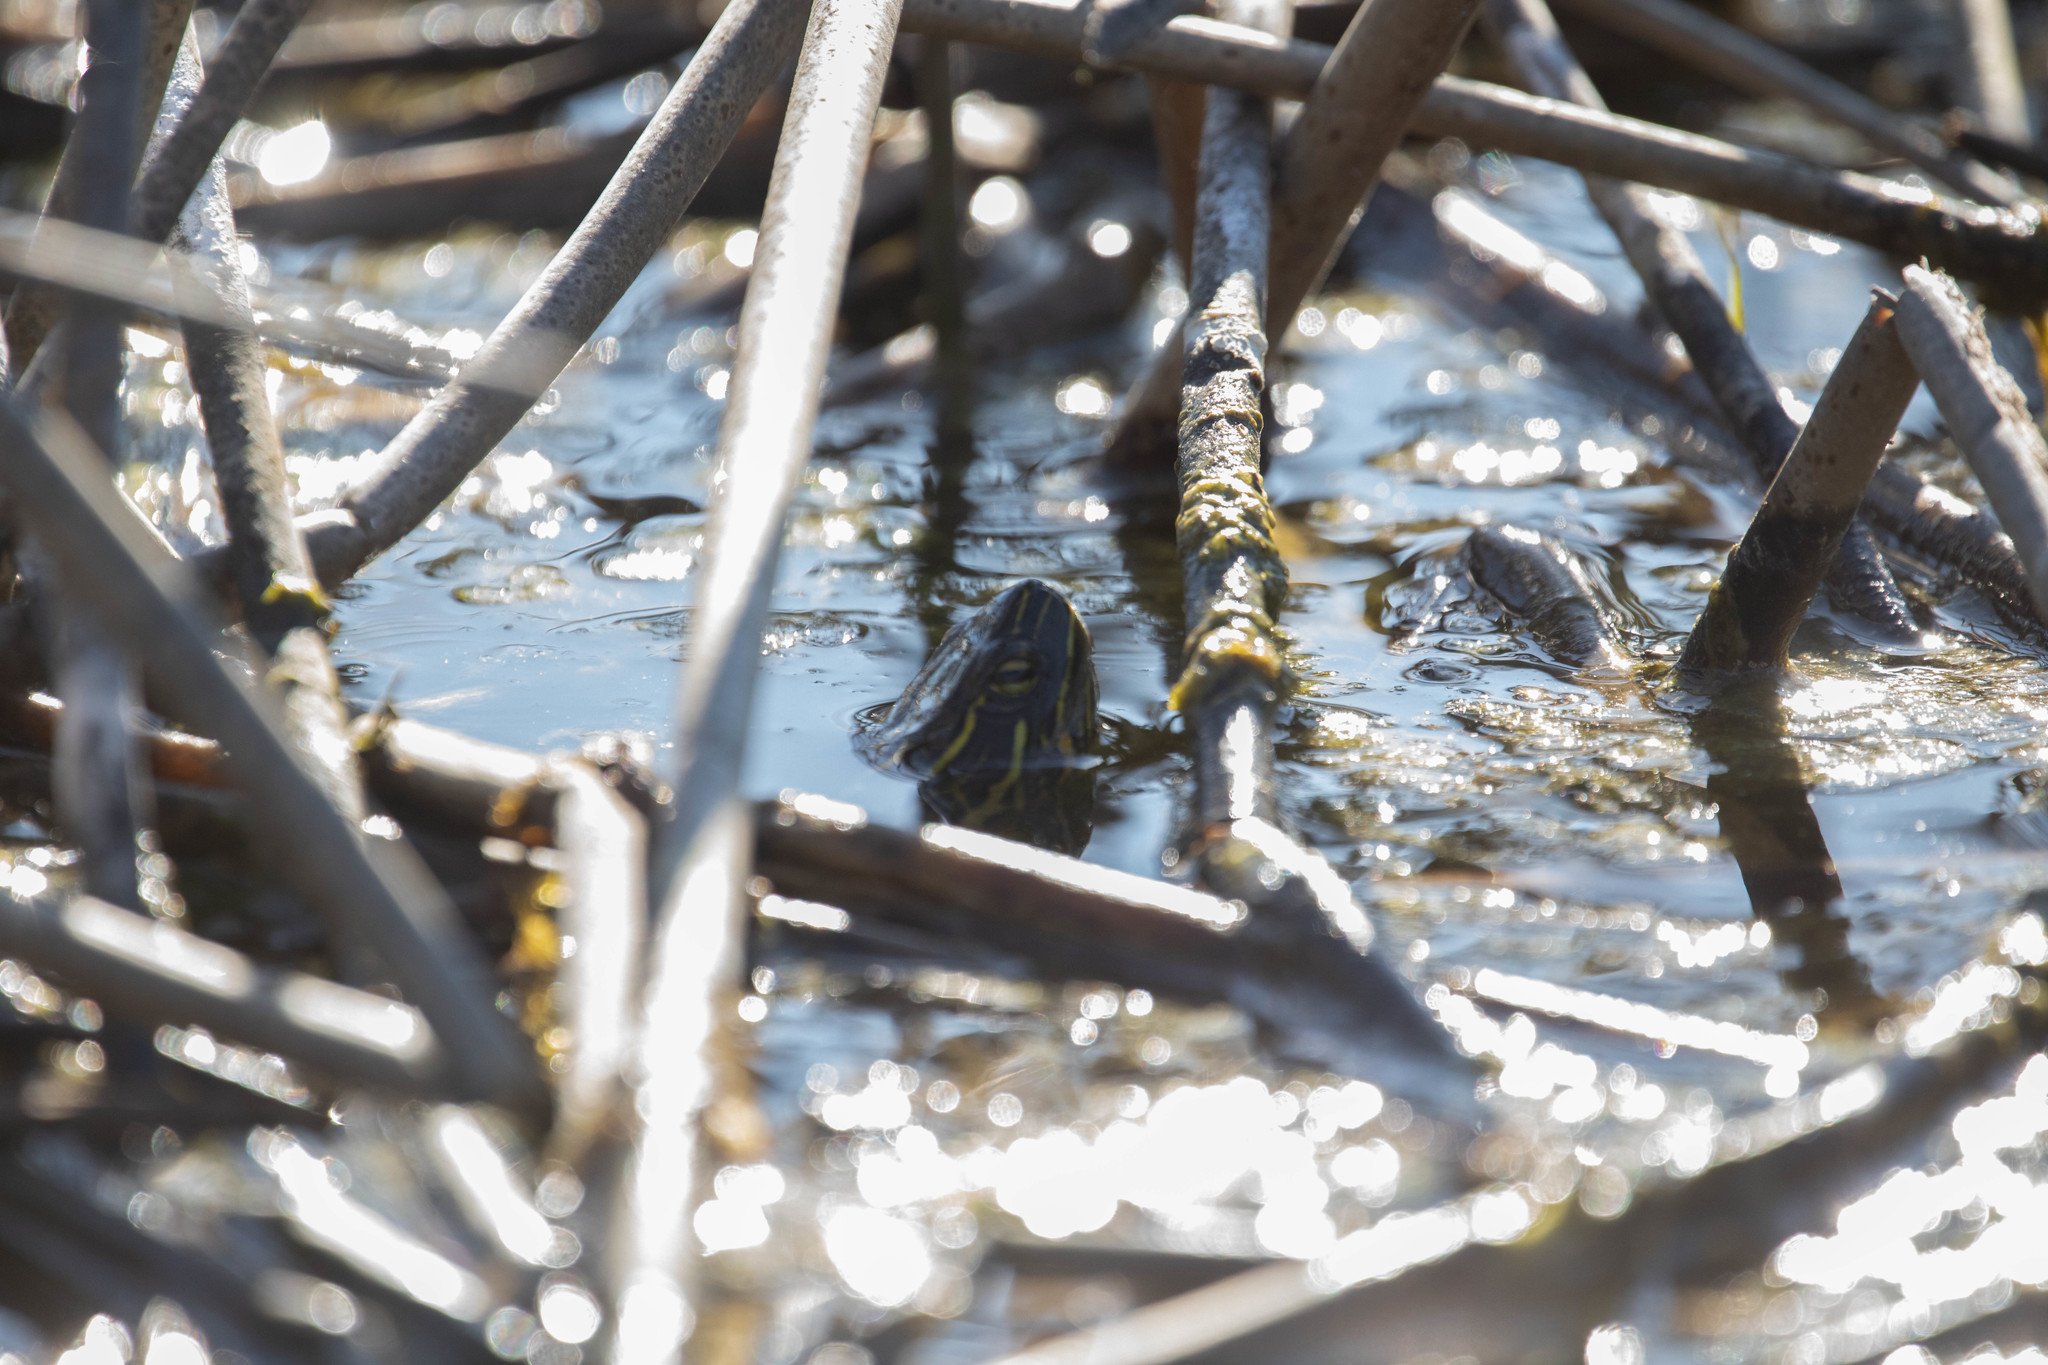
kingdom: Animalia
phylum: Chordata
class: Testudines
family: Emydidae
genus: Chrysemys
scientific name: Chrysemys picta
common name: Painted turtle
